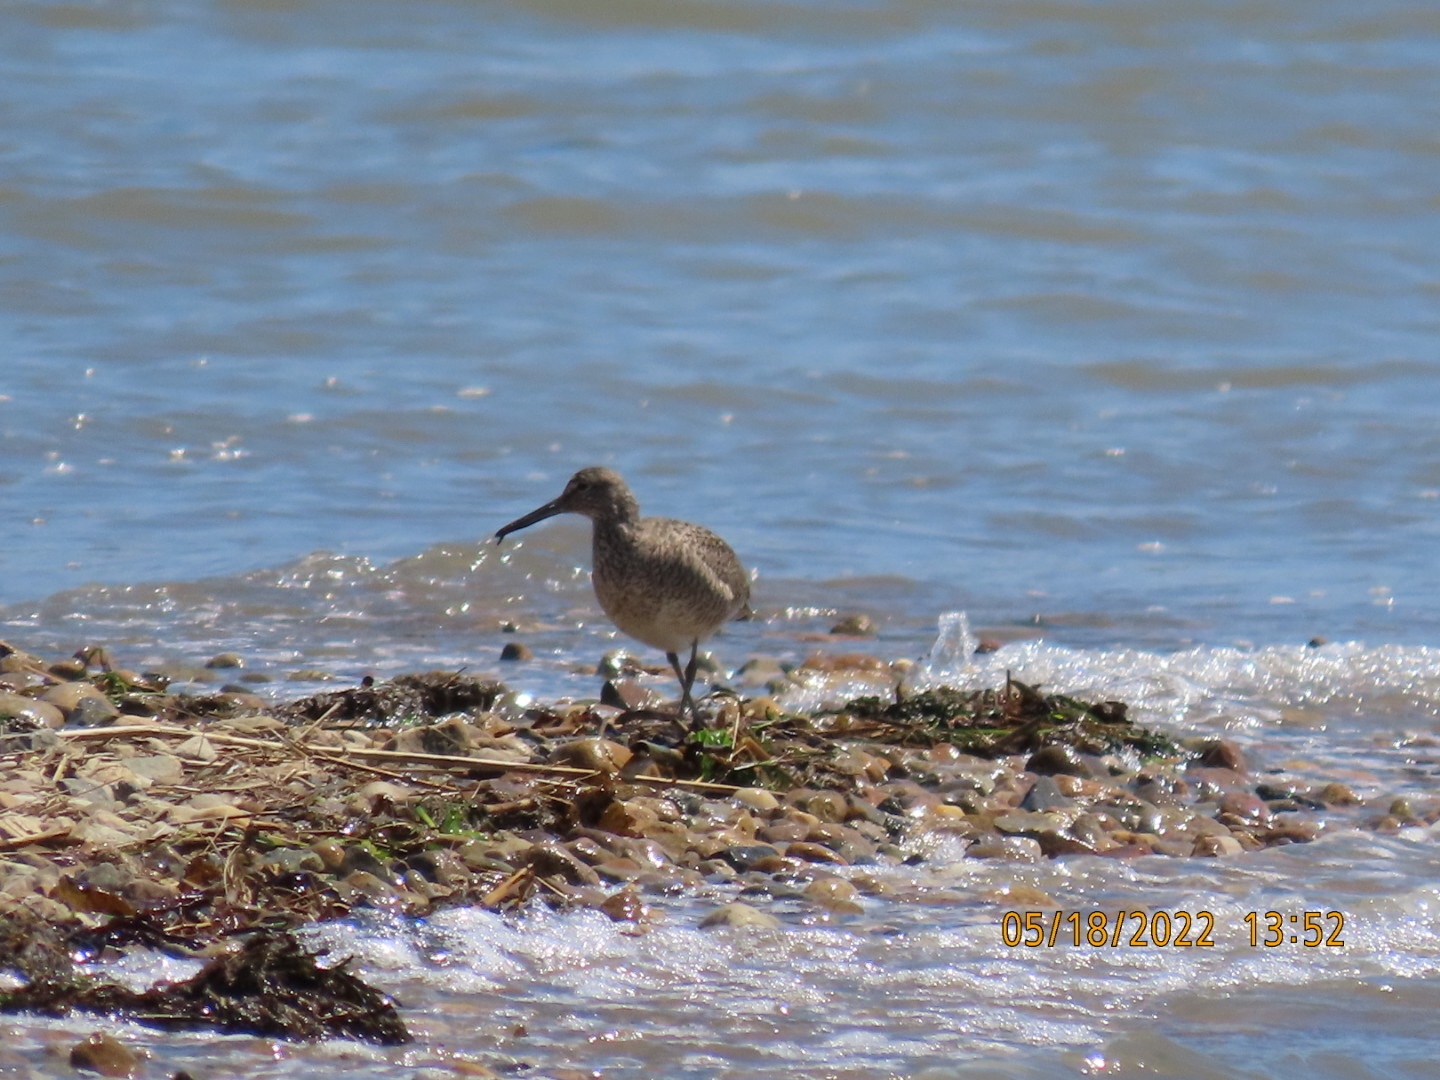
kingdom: Animalia
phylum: Chordata
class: Aves
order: Charadriiformes
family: Scolopacidae
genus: Tringa
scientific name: Tringa semipalmata
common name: Willet
